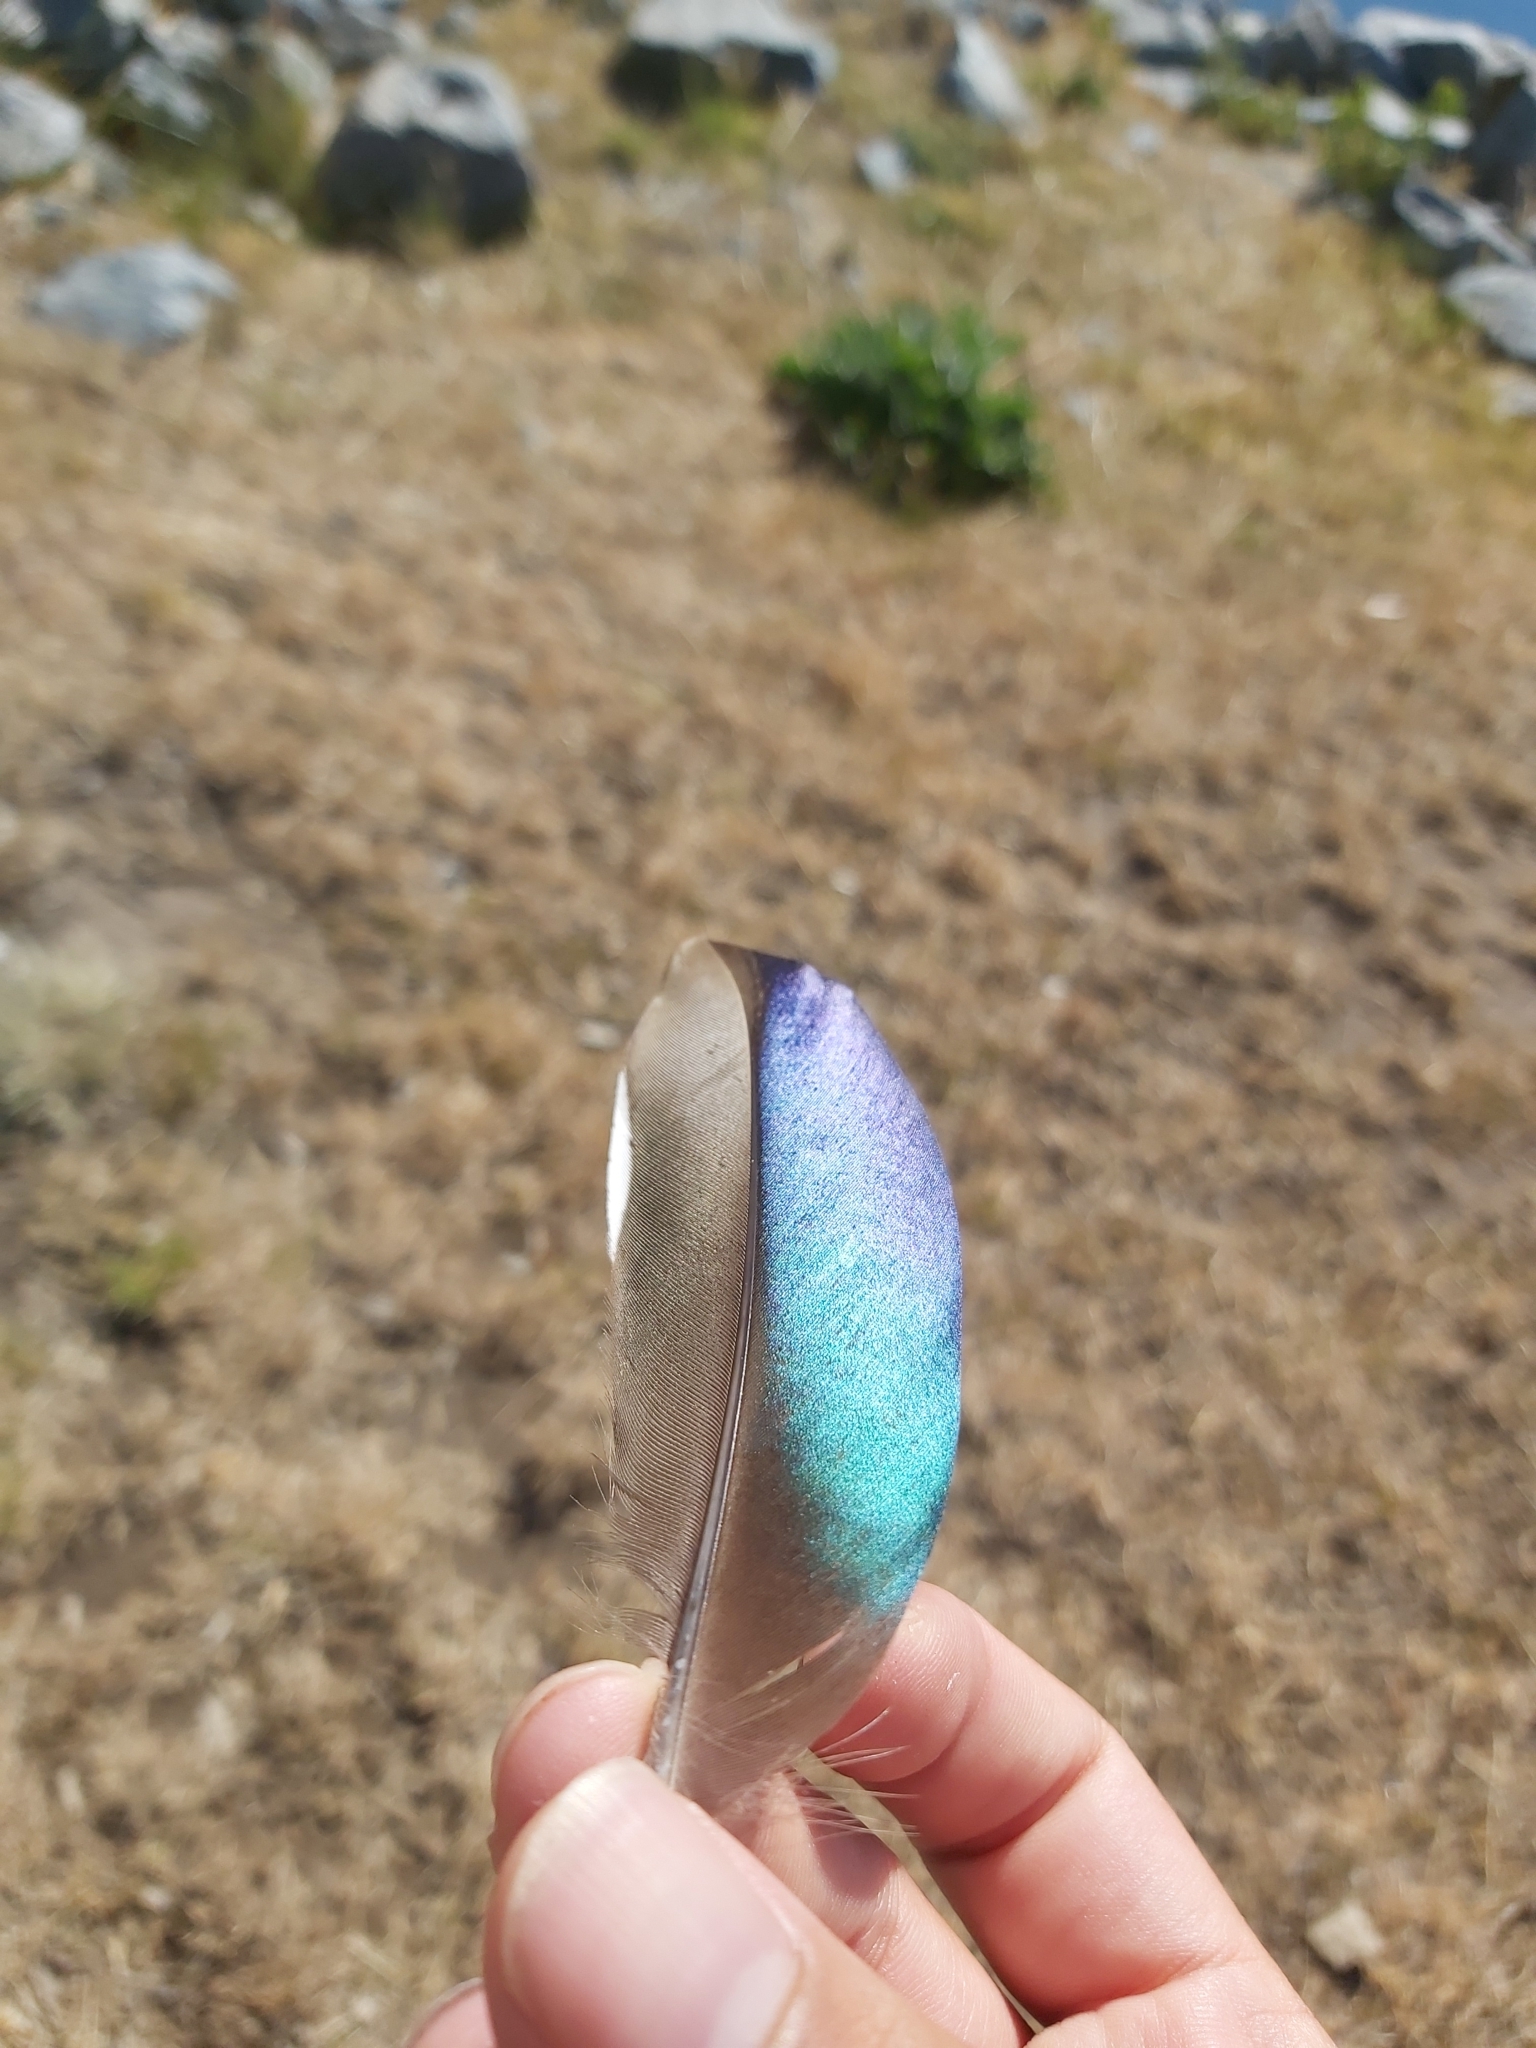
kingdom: Animalia
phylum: Chordata
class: Aves
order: Anseriformes
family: Anatidae
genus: Chenonetta
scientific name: Chenonetta jubata
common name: Maned duck
